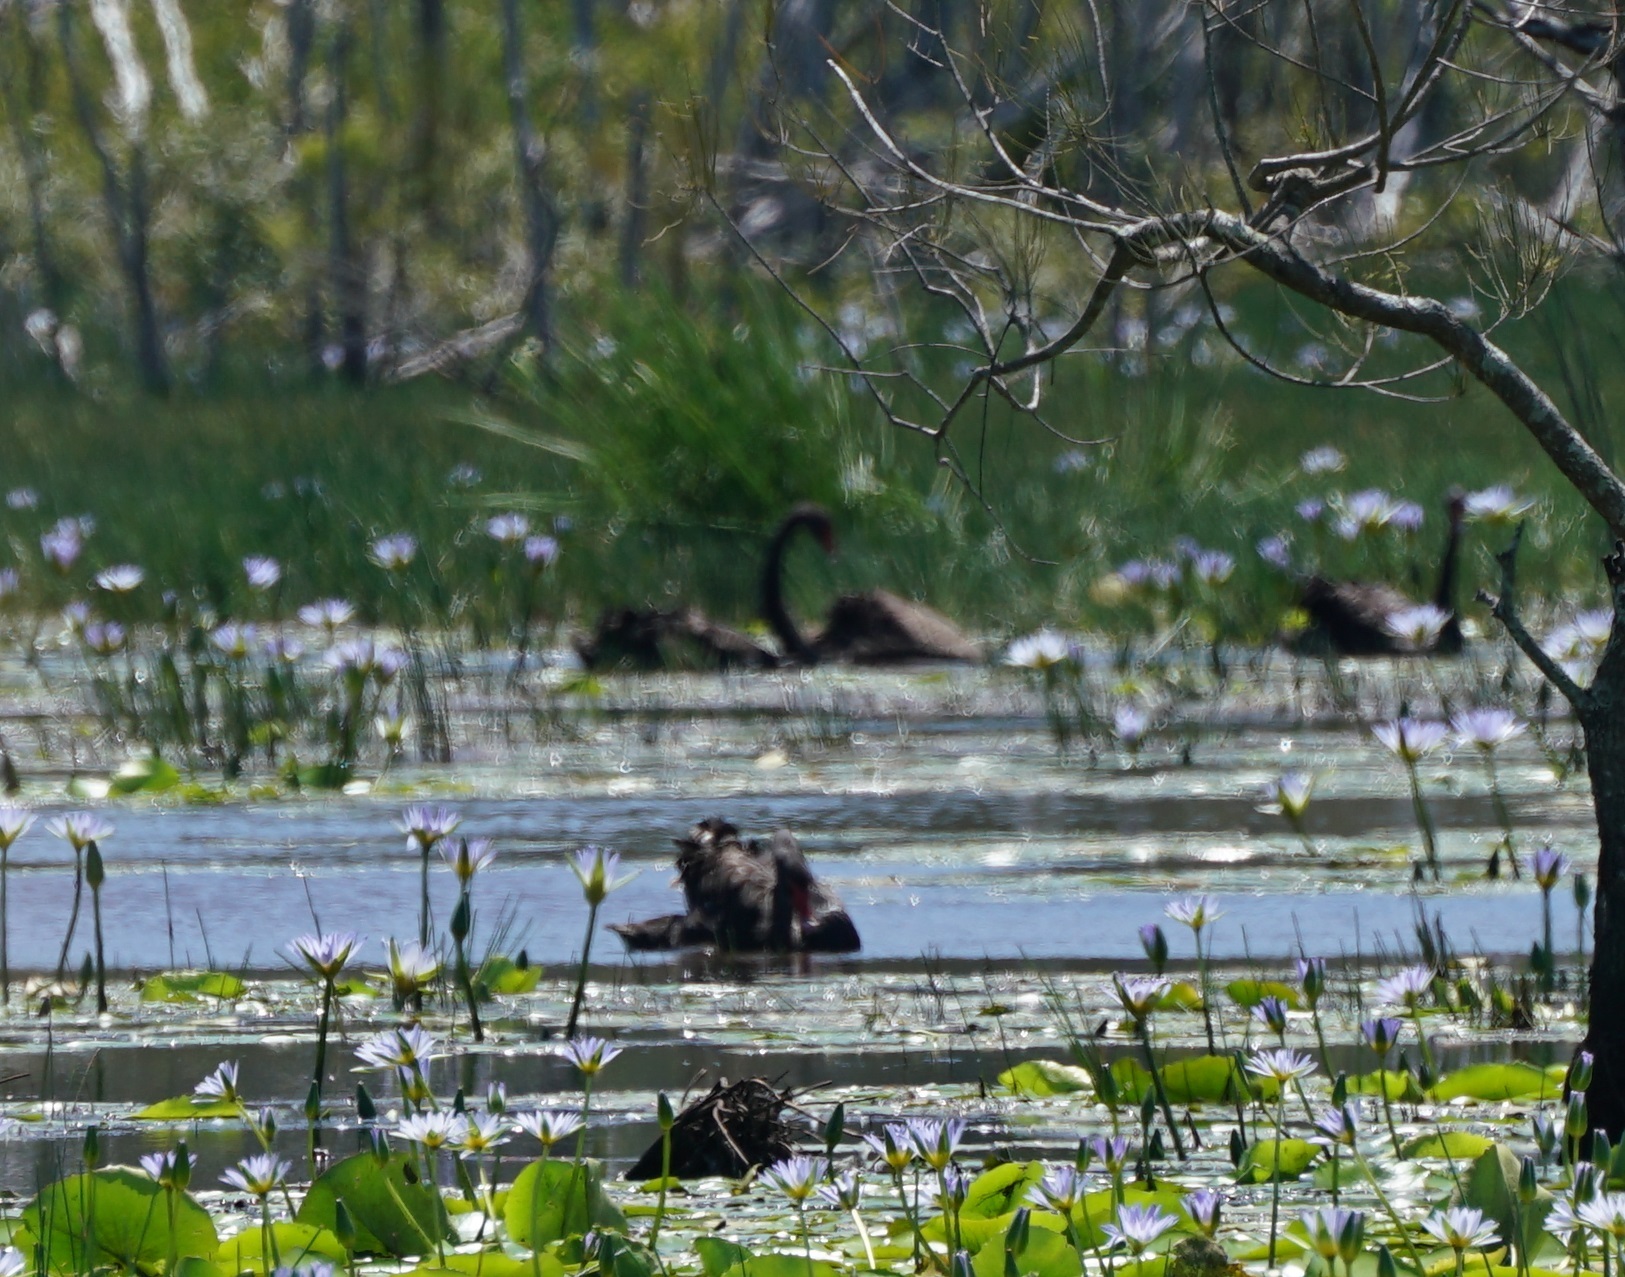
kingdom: Animalia
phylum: Chordata
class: Aves
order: Anseriformes
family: Anatidae
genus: Cygnus
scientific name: Cygnus atratus
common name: Black swan
